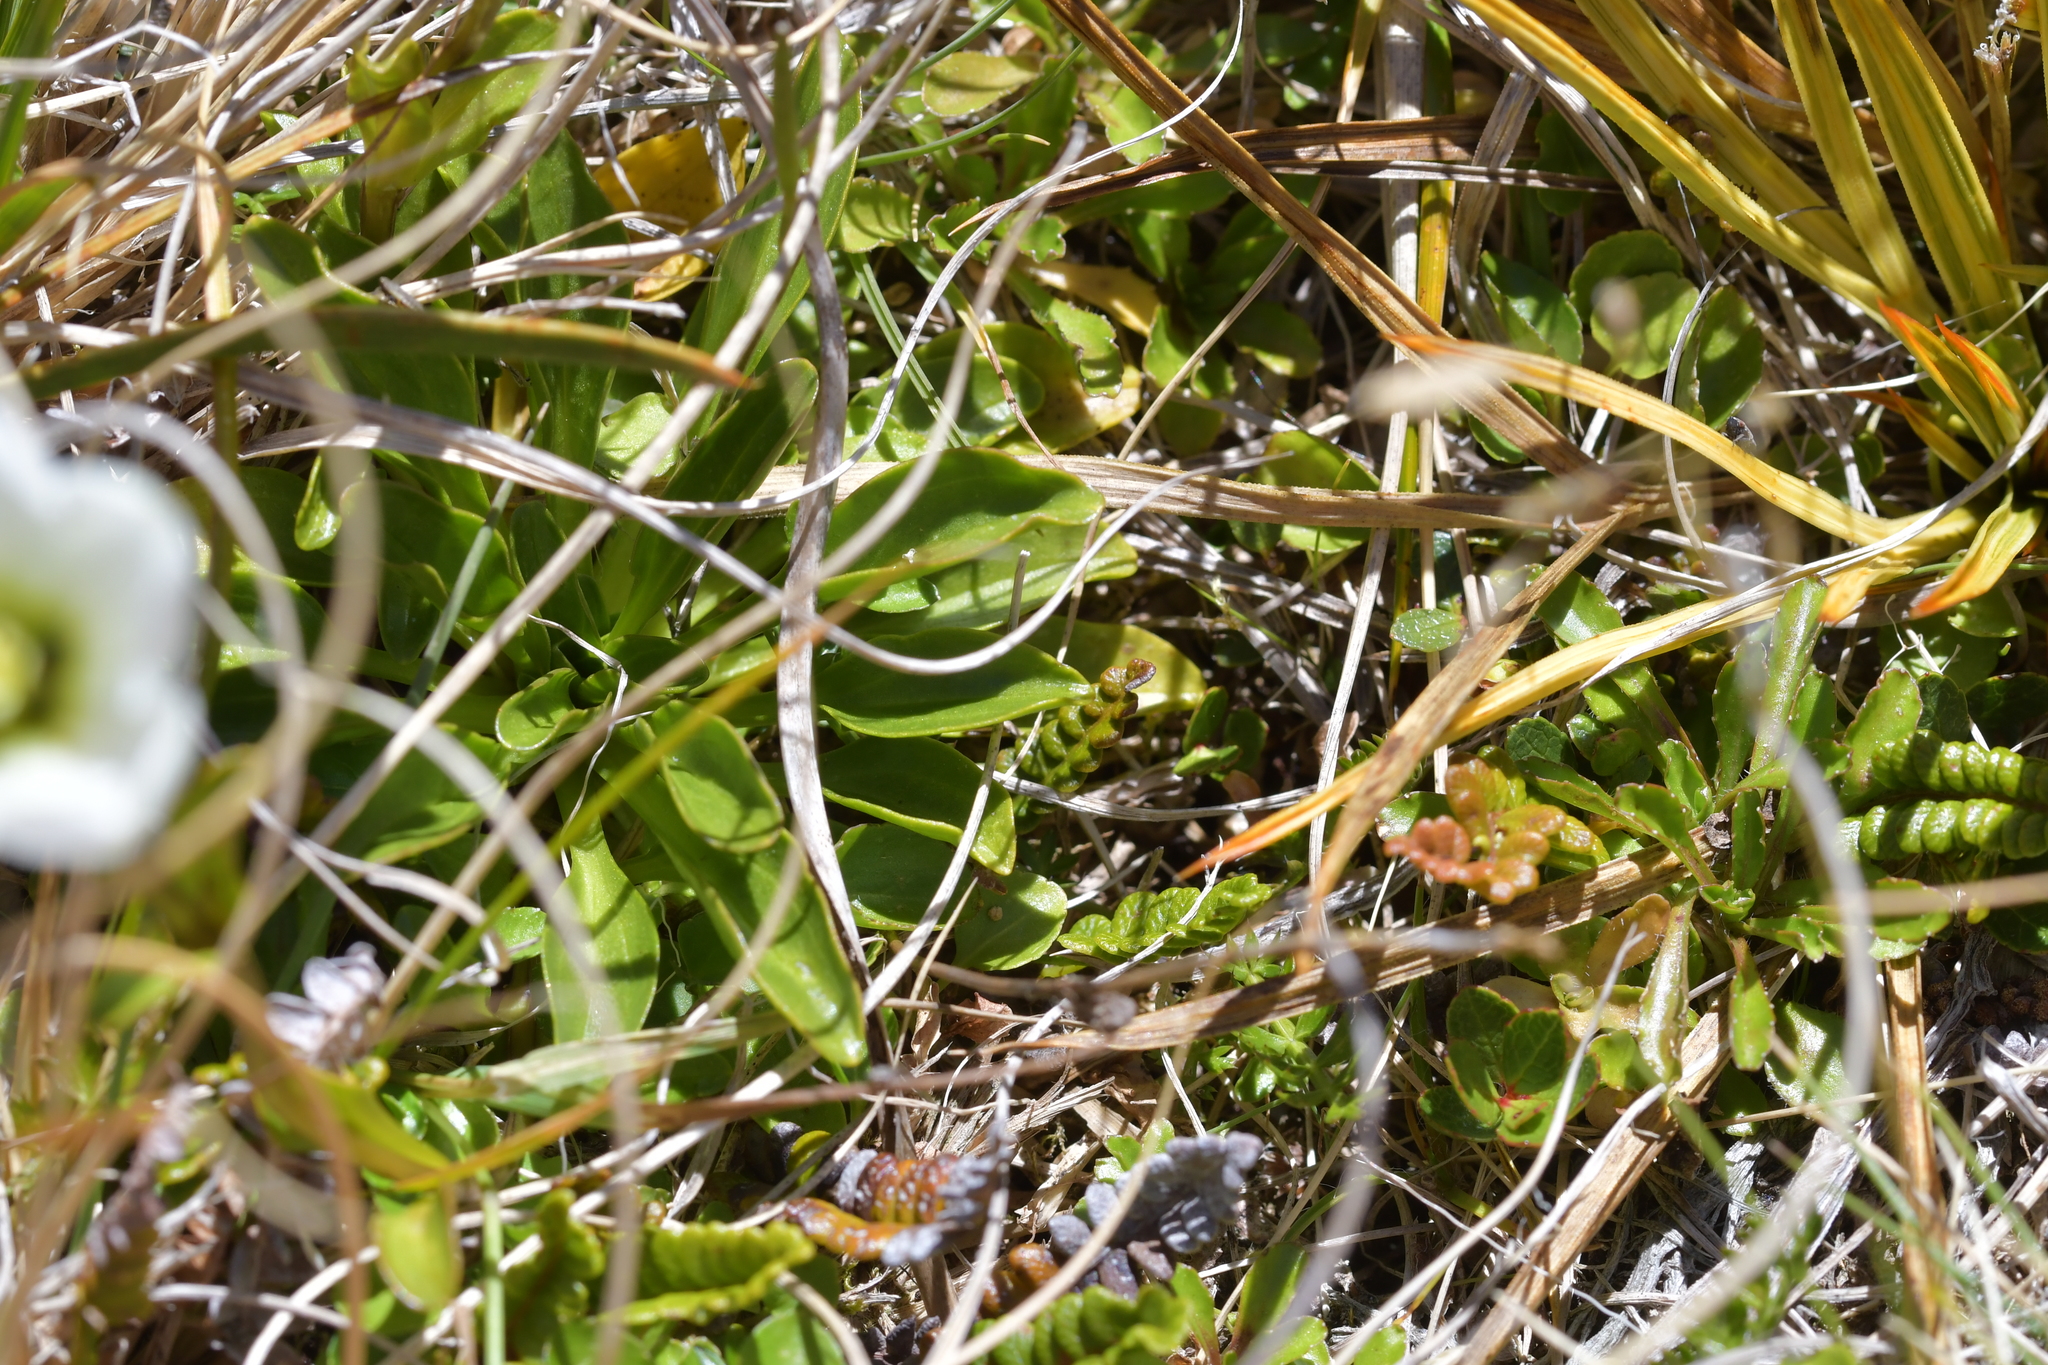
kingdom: Plantae
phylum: Tracheophyta
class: Magnoliopsida
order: Gentianales
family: Gentianaceae
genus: Gentianella
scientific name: Gentianella bellidifolia
